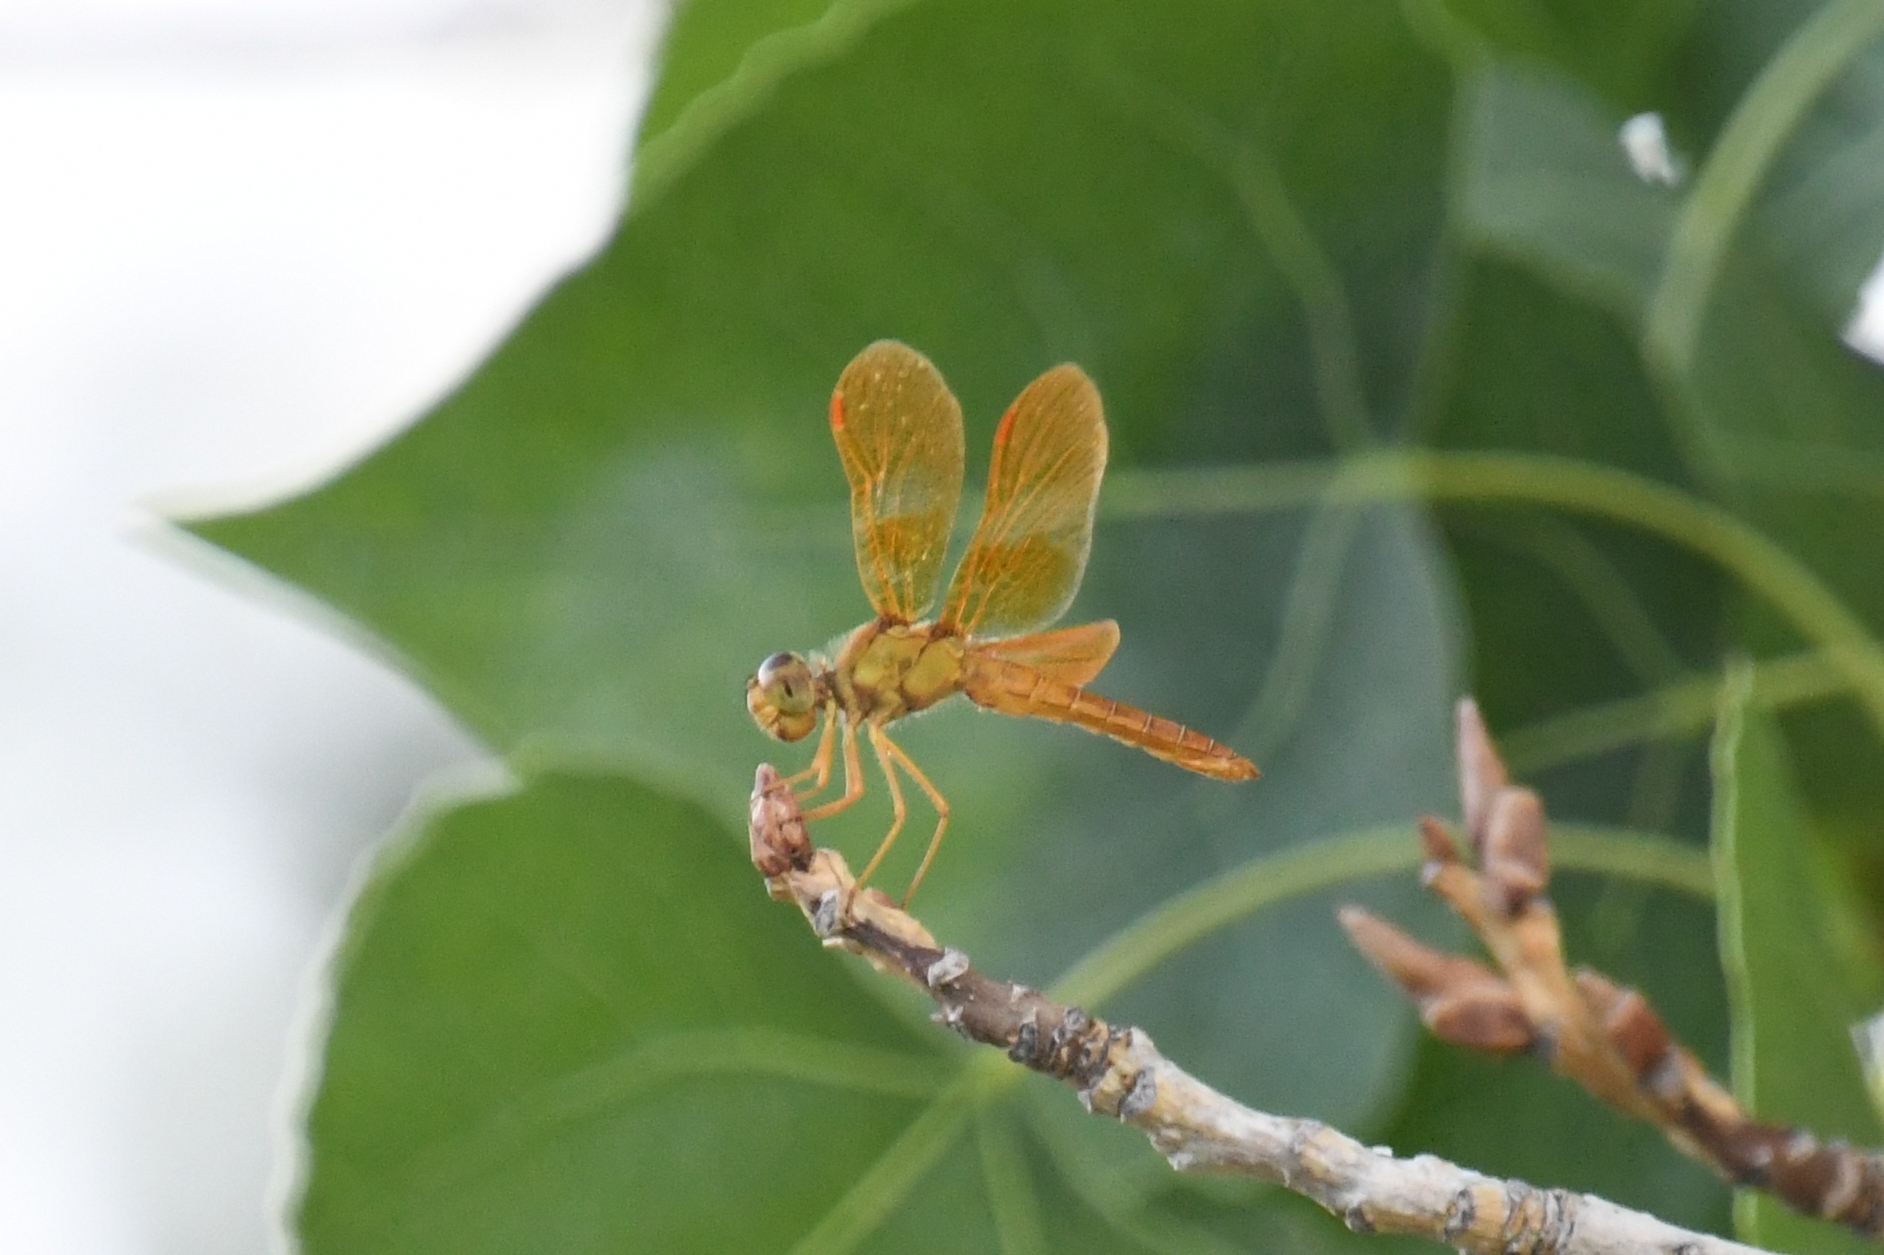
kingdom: Animalia
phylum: Arthropoda
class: Insecta
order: Odonata
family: Libellulidae
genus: Perithemis
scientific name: Perithemis intensa
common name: Mexican amberwing
